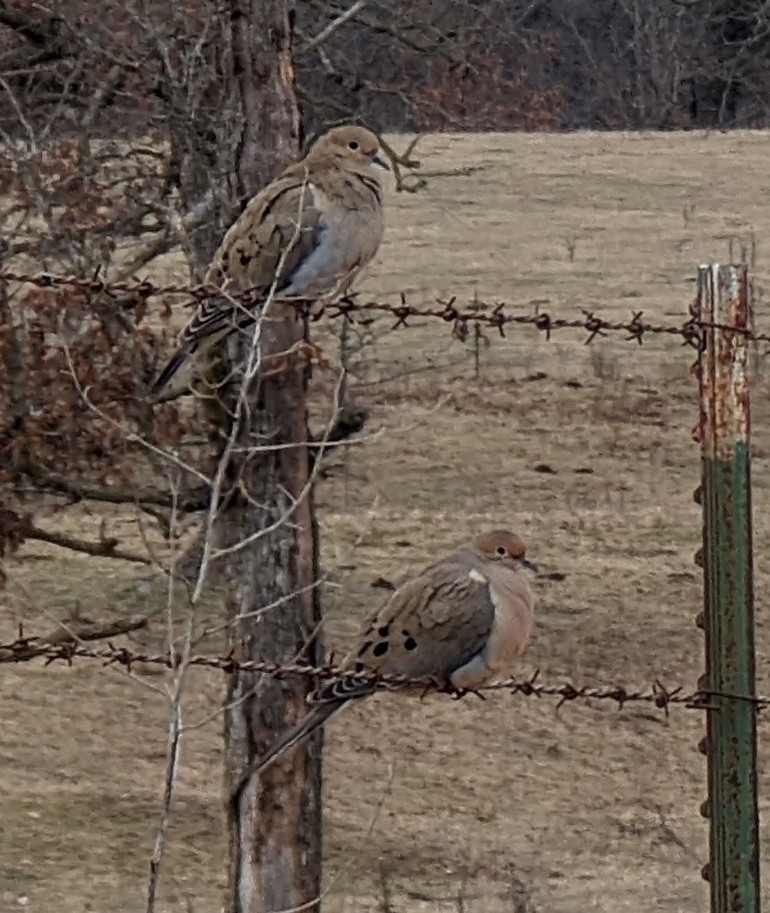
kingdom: Animalia
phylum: Chordata
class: Aves
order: Columbiformes
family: Columbidae
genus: Zenaida
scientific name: Zenaida macroura
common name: Mourning dove
